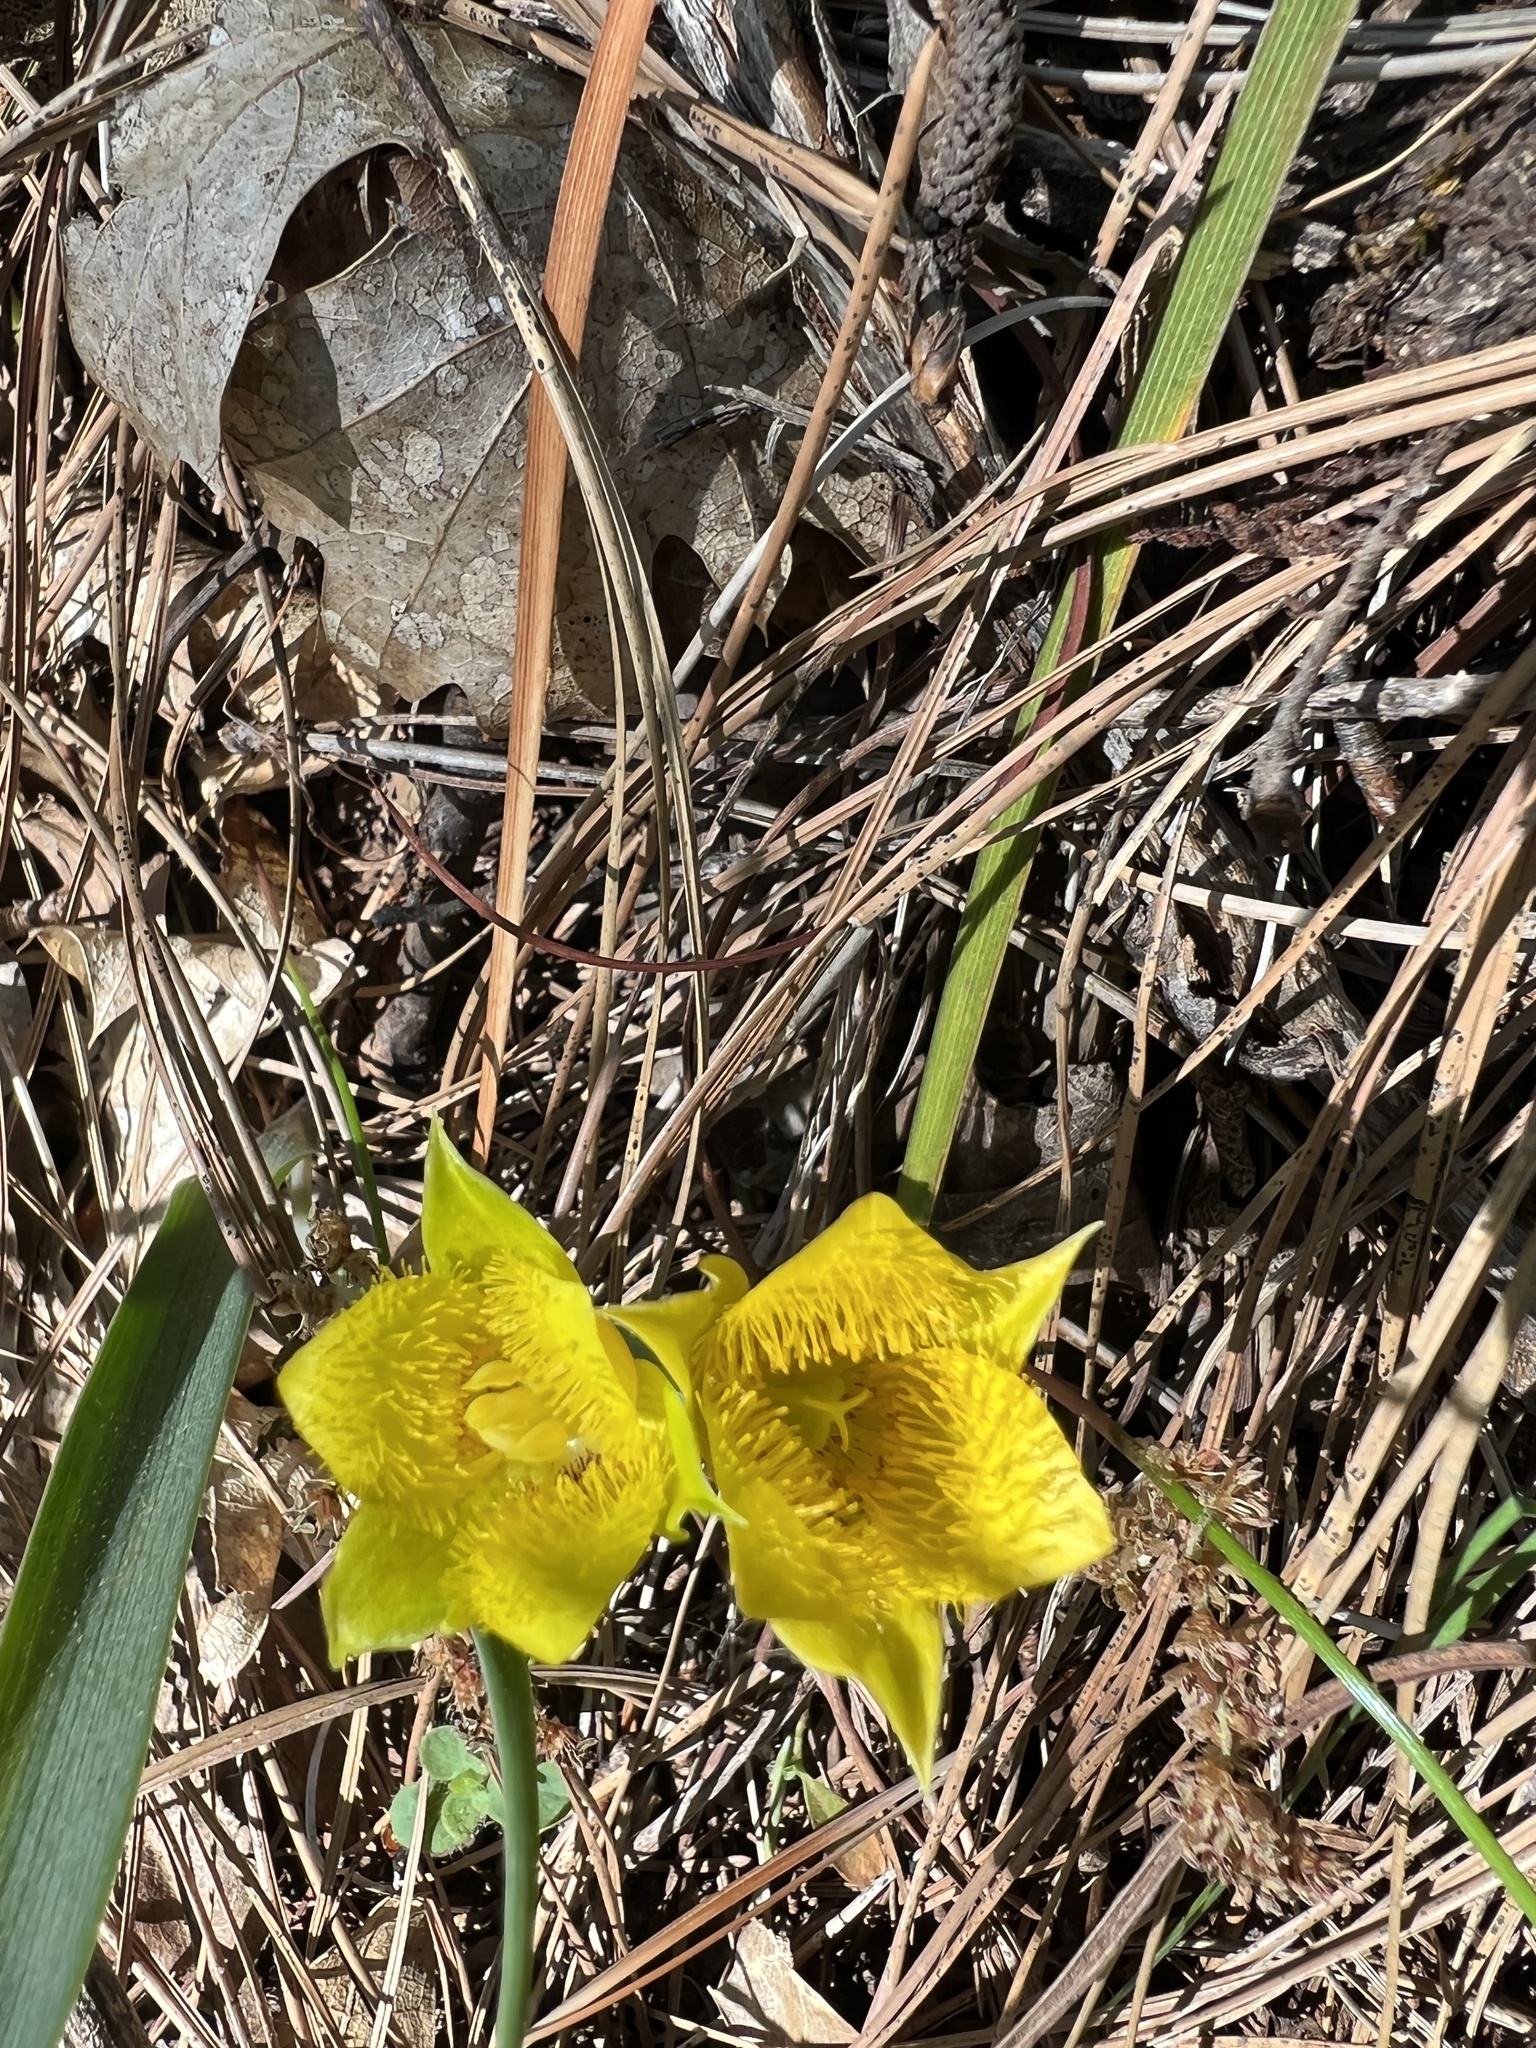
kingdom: Plantae
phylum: Tracheophyta
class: Liliopsida
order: Liliales
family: Liliaceae
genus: Calochortus
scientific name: Calochortus monophyllus
